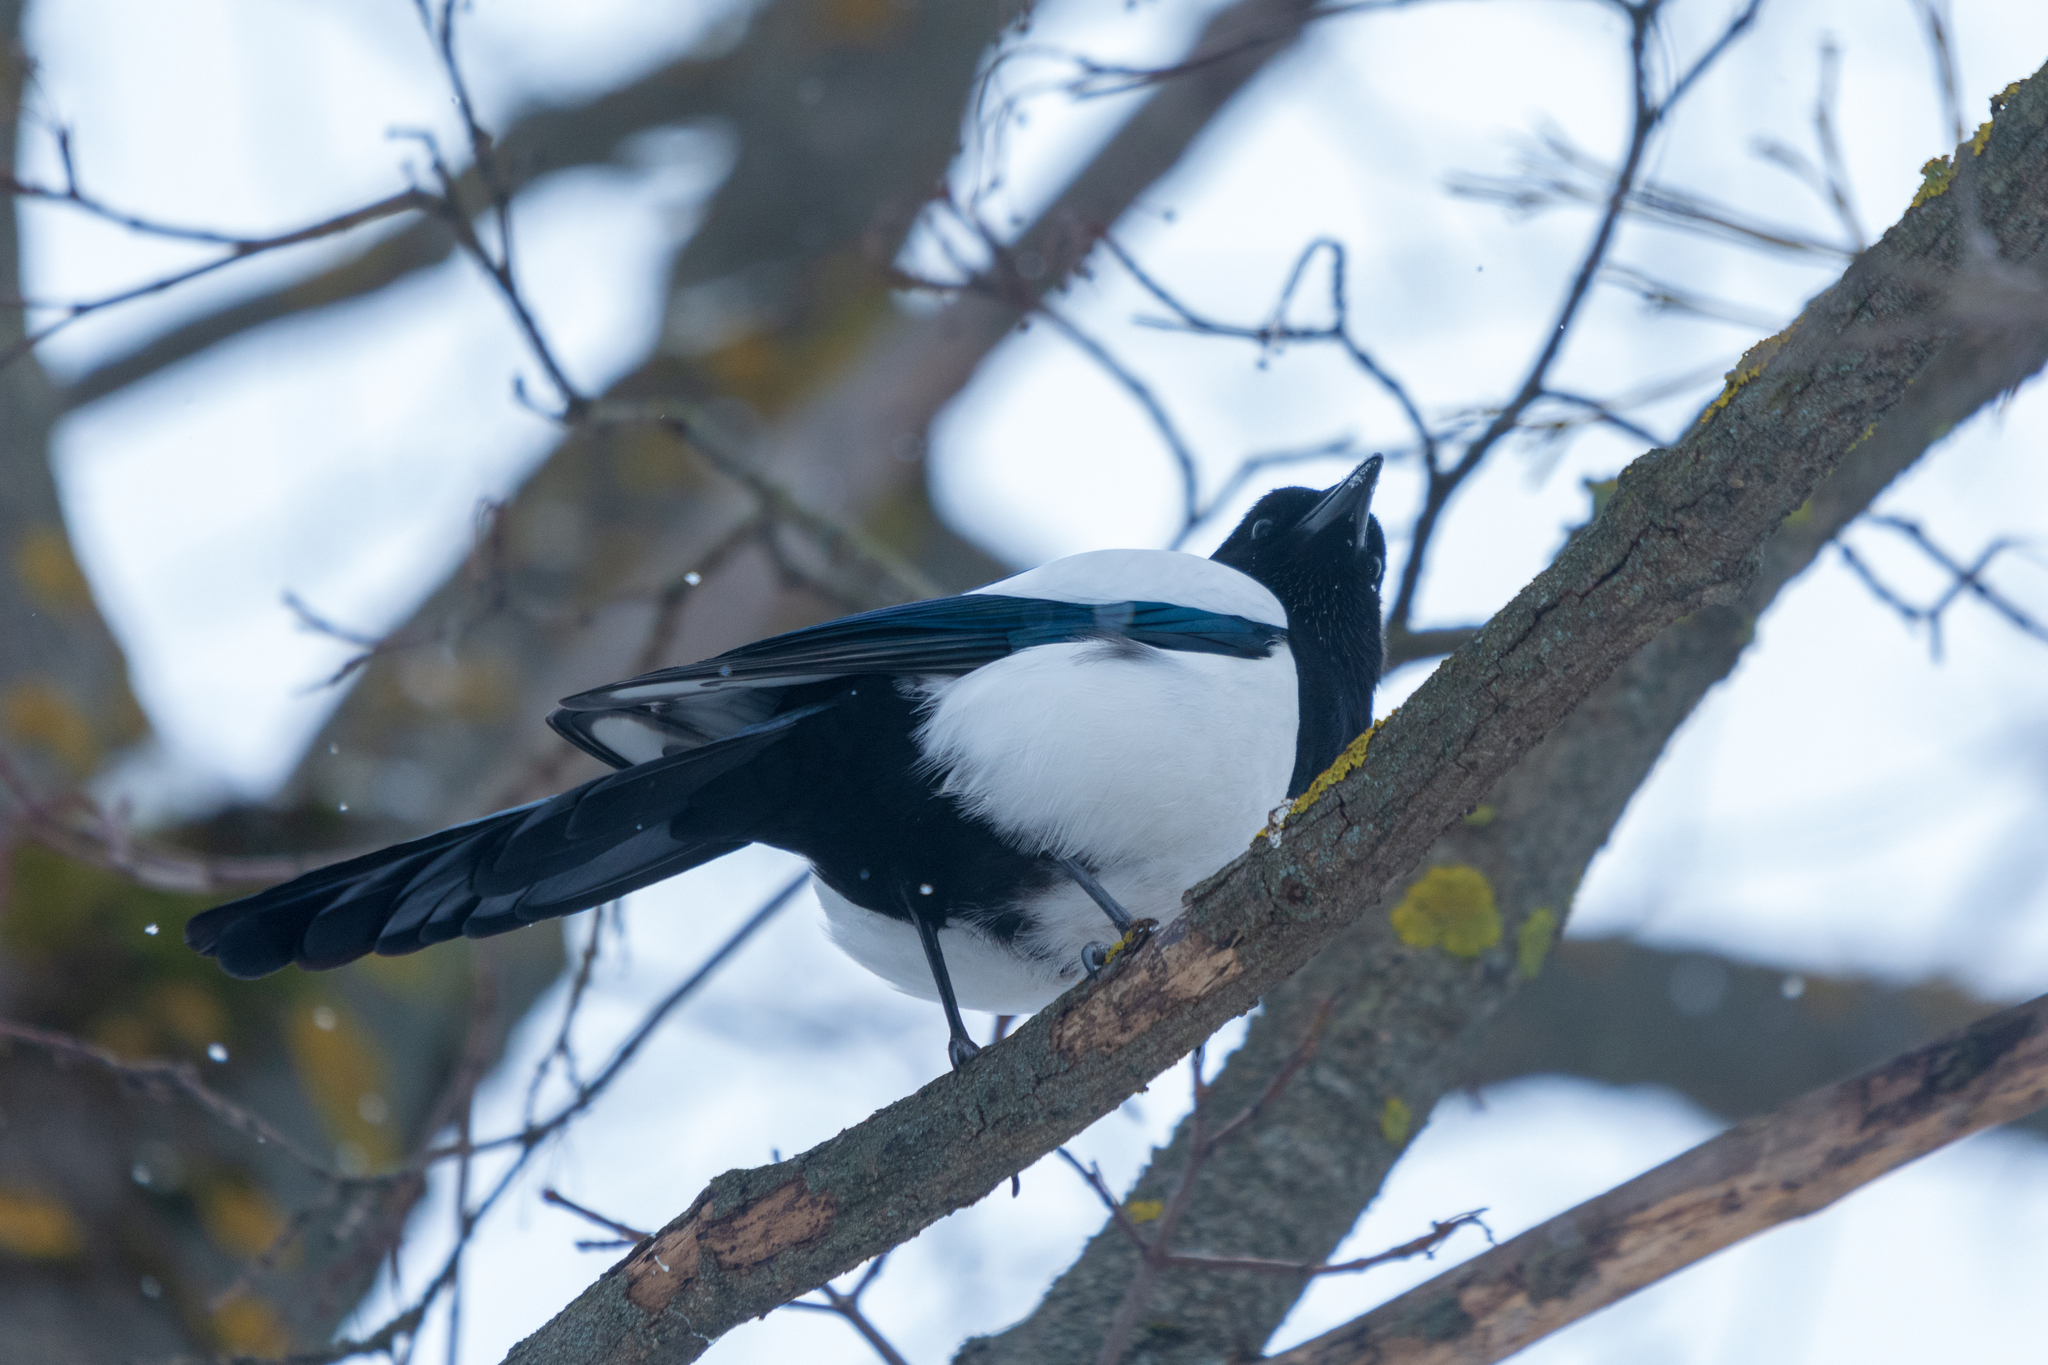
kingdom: Animalia
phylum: Chordata
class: Aves
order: Passeriformes
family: Corvidae
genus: Pica
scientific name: Pica pica
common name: Eurasian magpie
